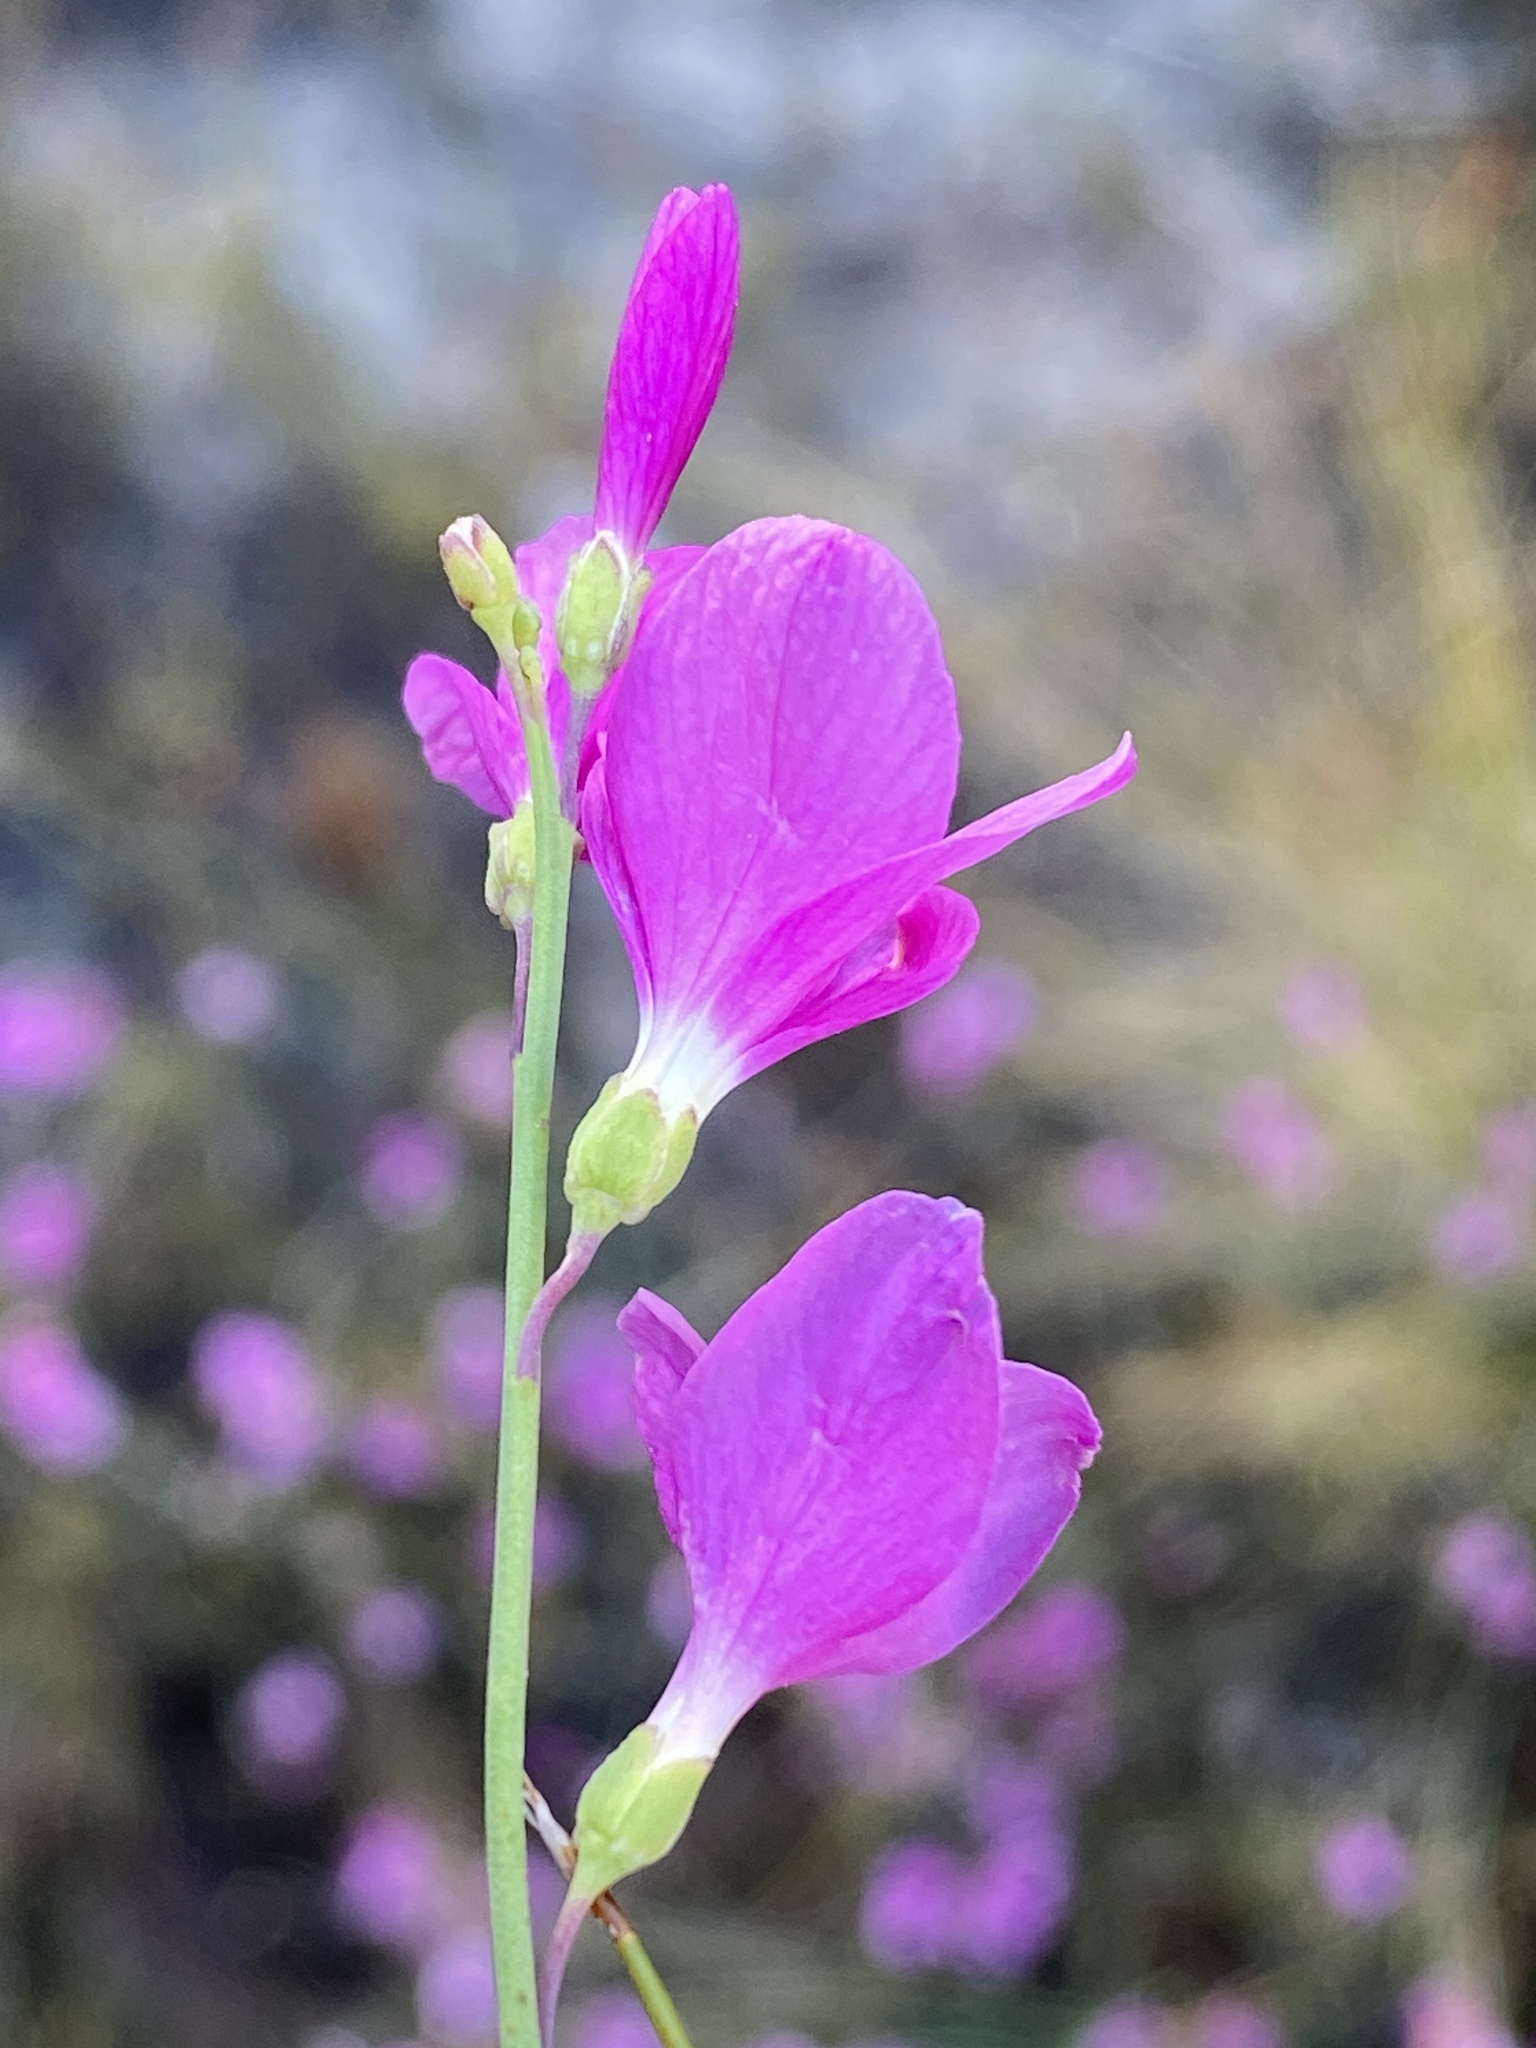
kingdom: Plantae
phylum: Tracheophyta
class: Magnoliopsida
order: Brassicales
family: Brassicaceae
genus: Heliophila
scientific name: Heliophila juncea
